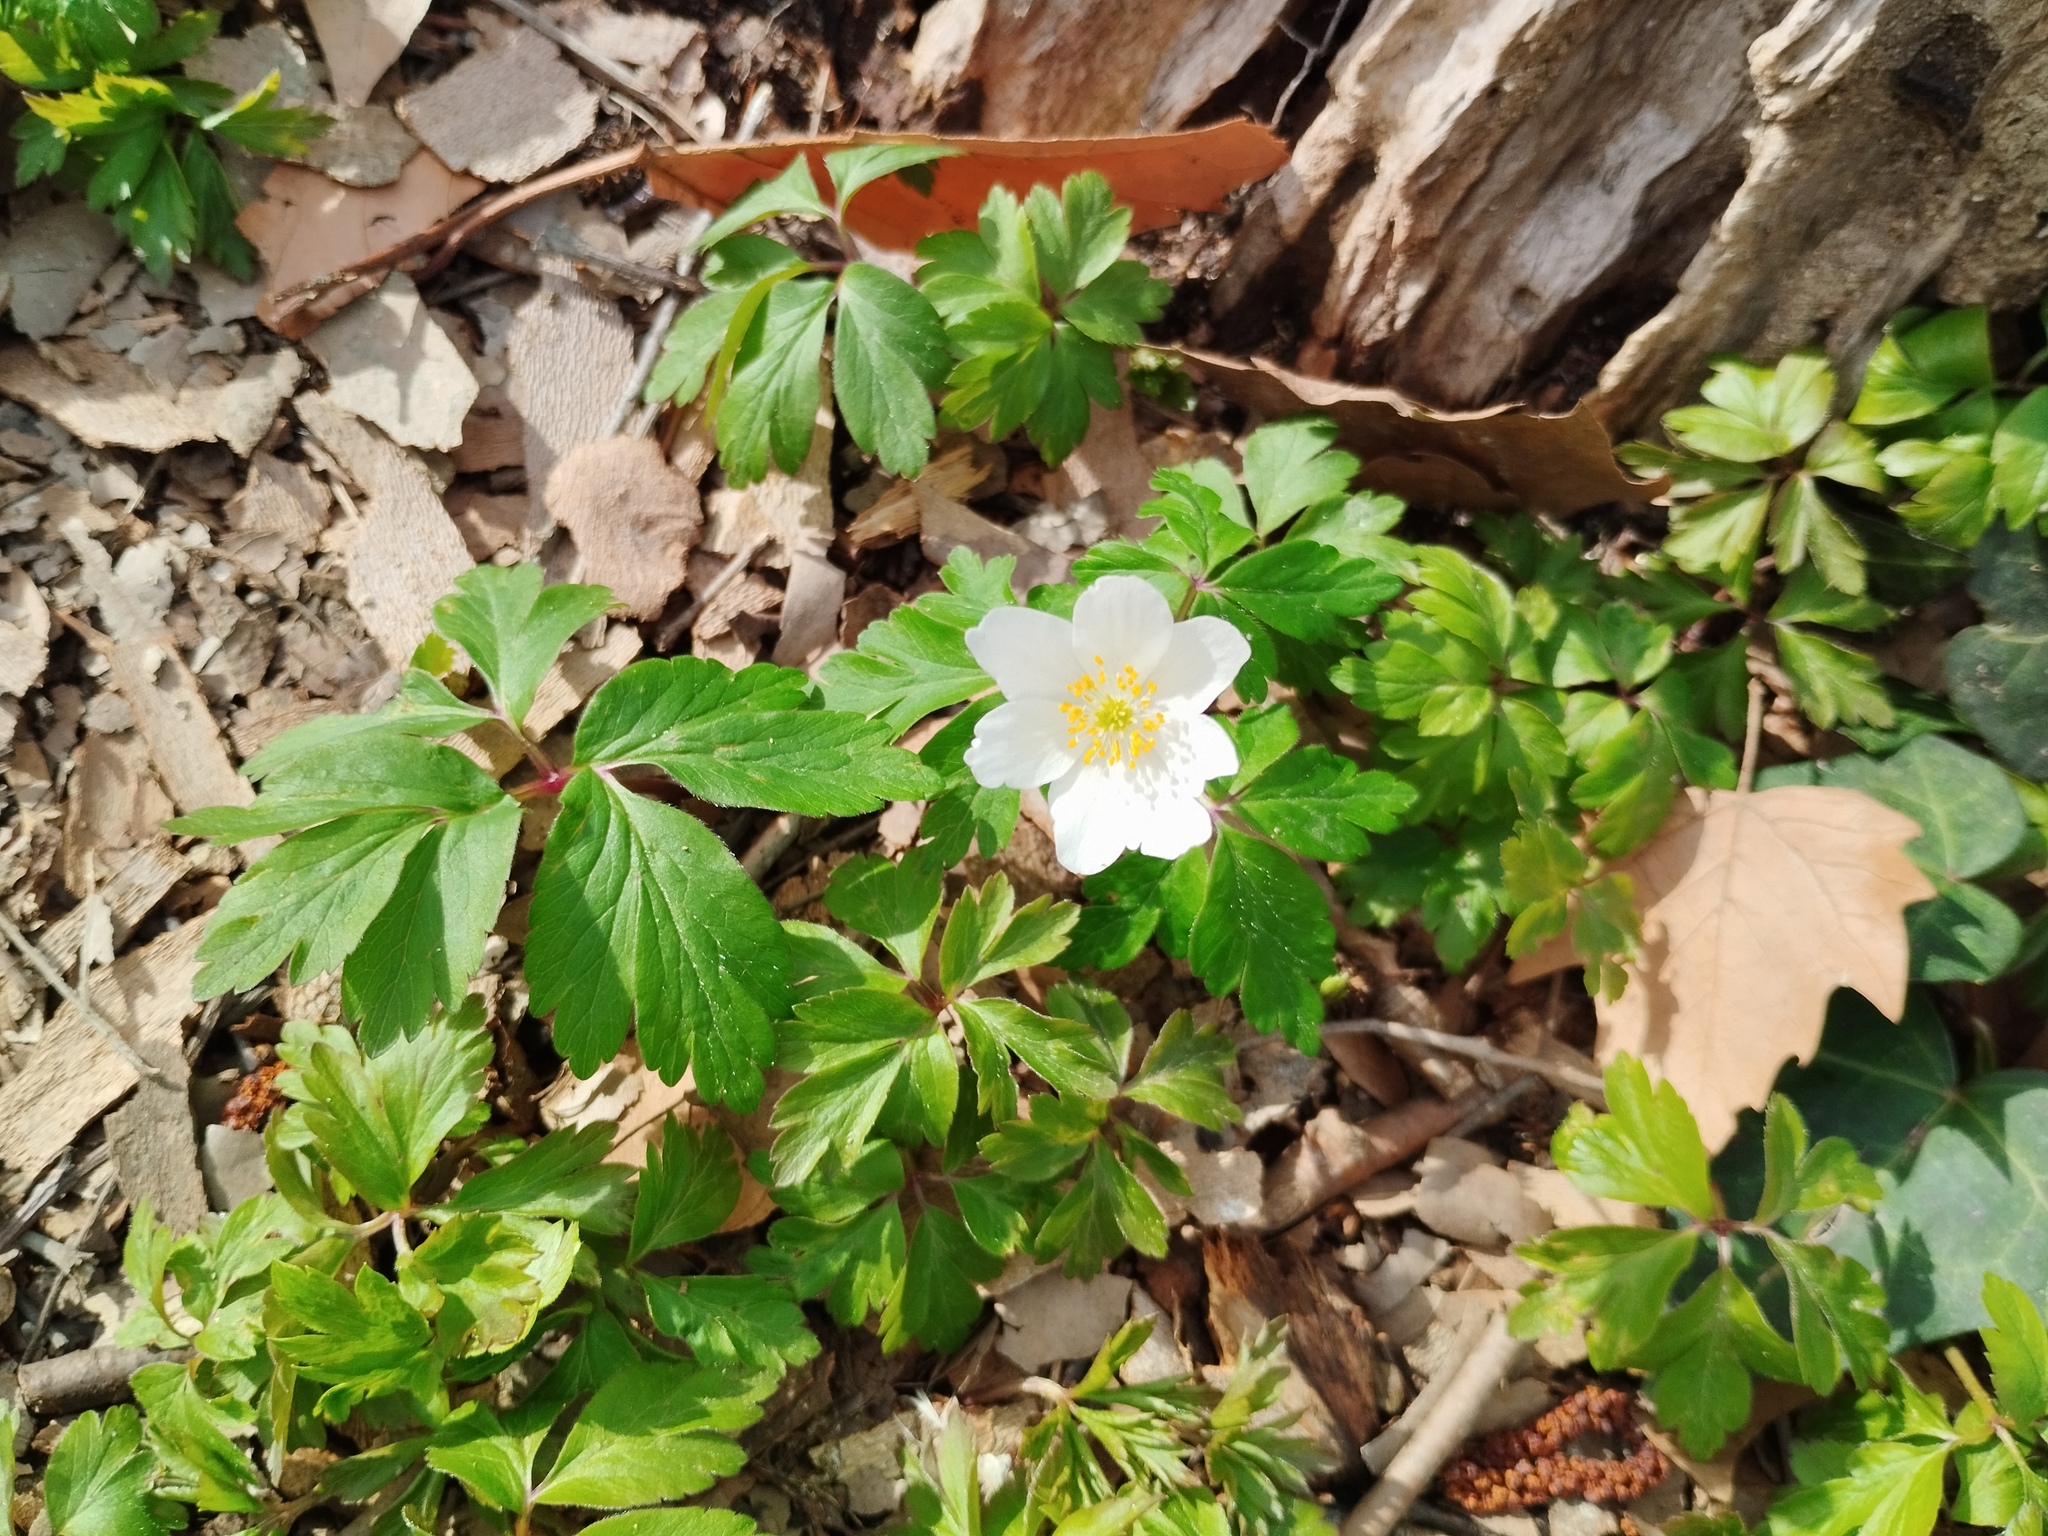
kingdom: Plantae
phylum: Tracheophyta
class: Magnoliopsida
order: Ranunculales
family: Ranunculaceae
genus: Anemone
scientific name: Anemone nemorosa
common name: Wood anemone
